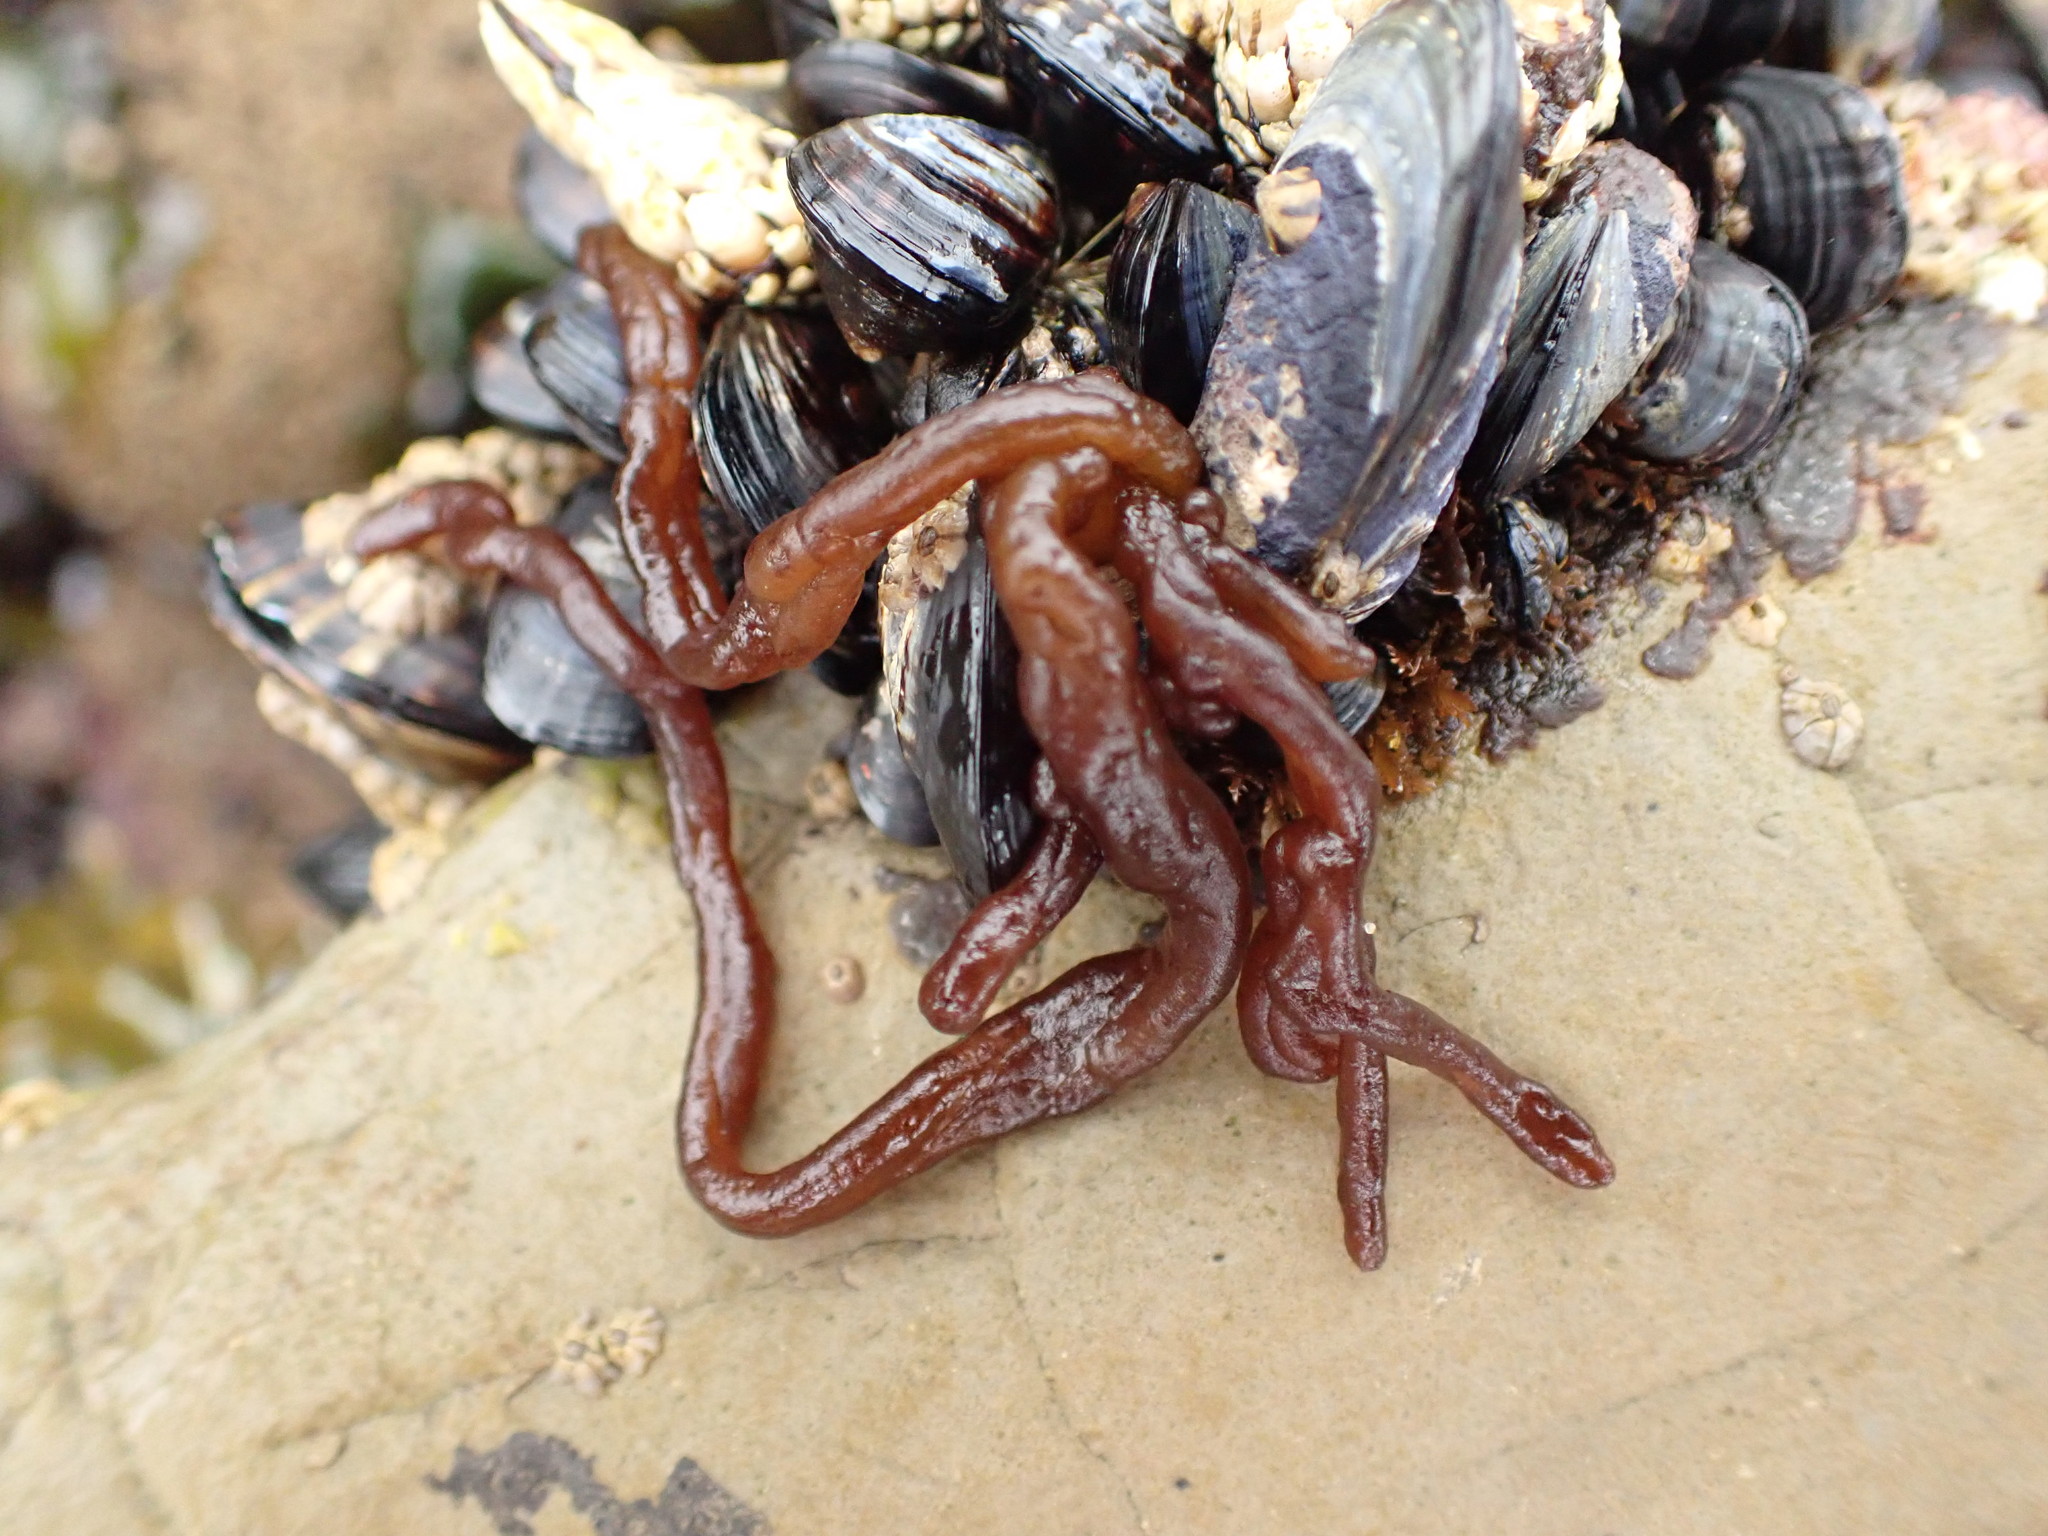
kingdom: Plantae
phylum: Rhodophyta
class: Florideophyceae
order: Nemaliales
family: Nemaliaceae
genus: Nemalion
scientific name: Nemalion elminthoides
